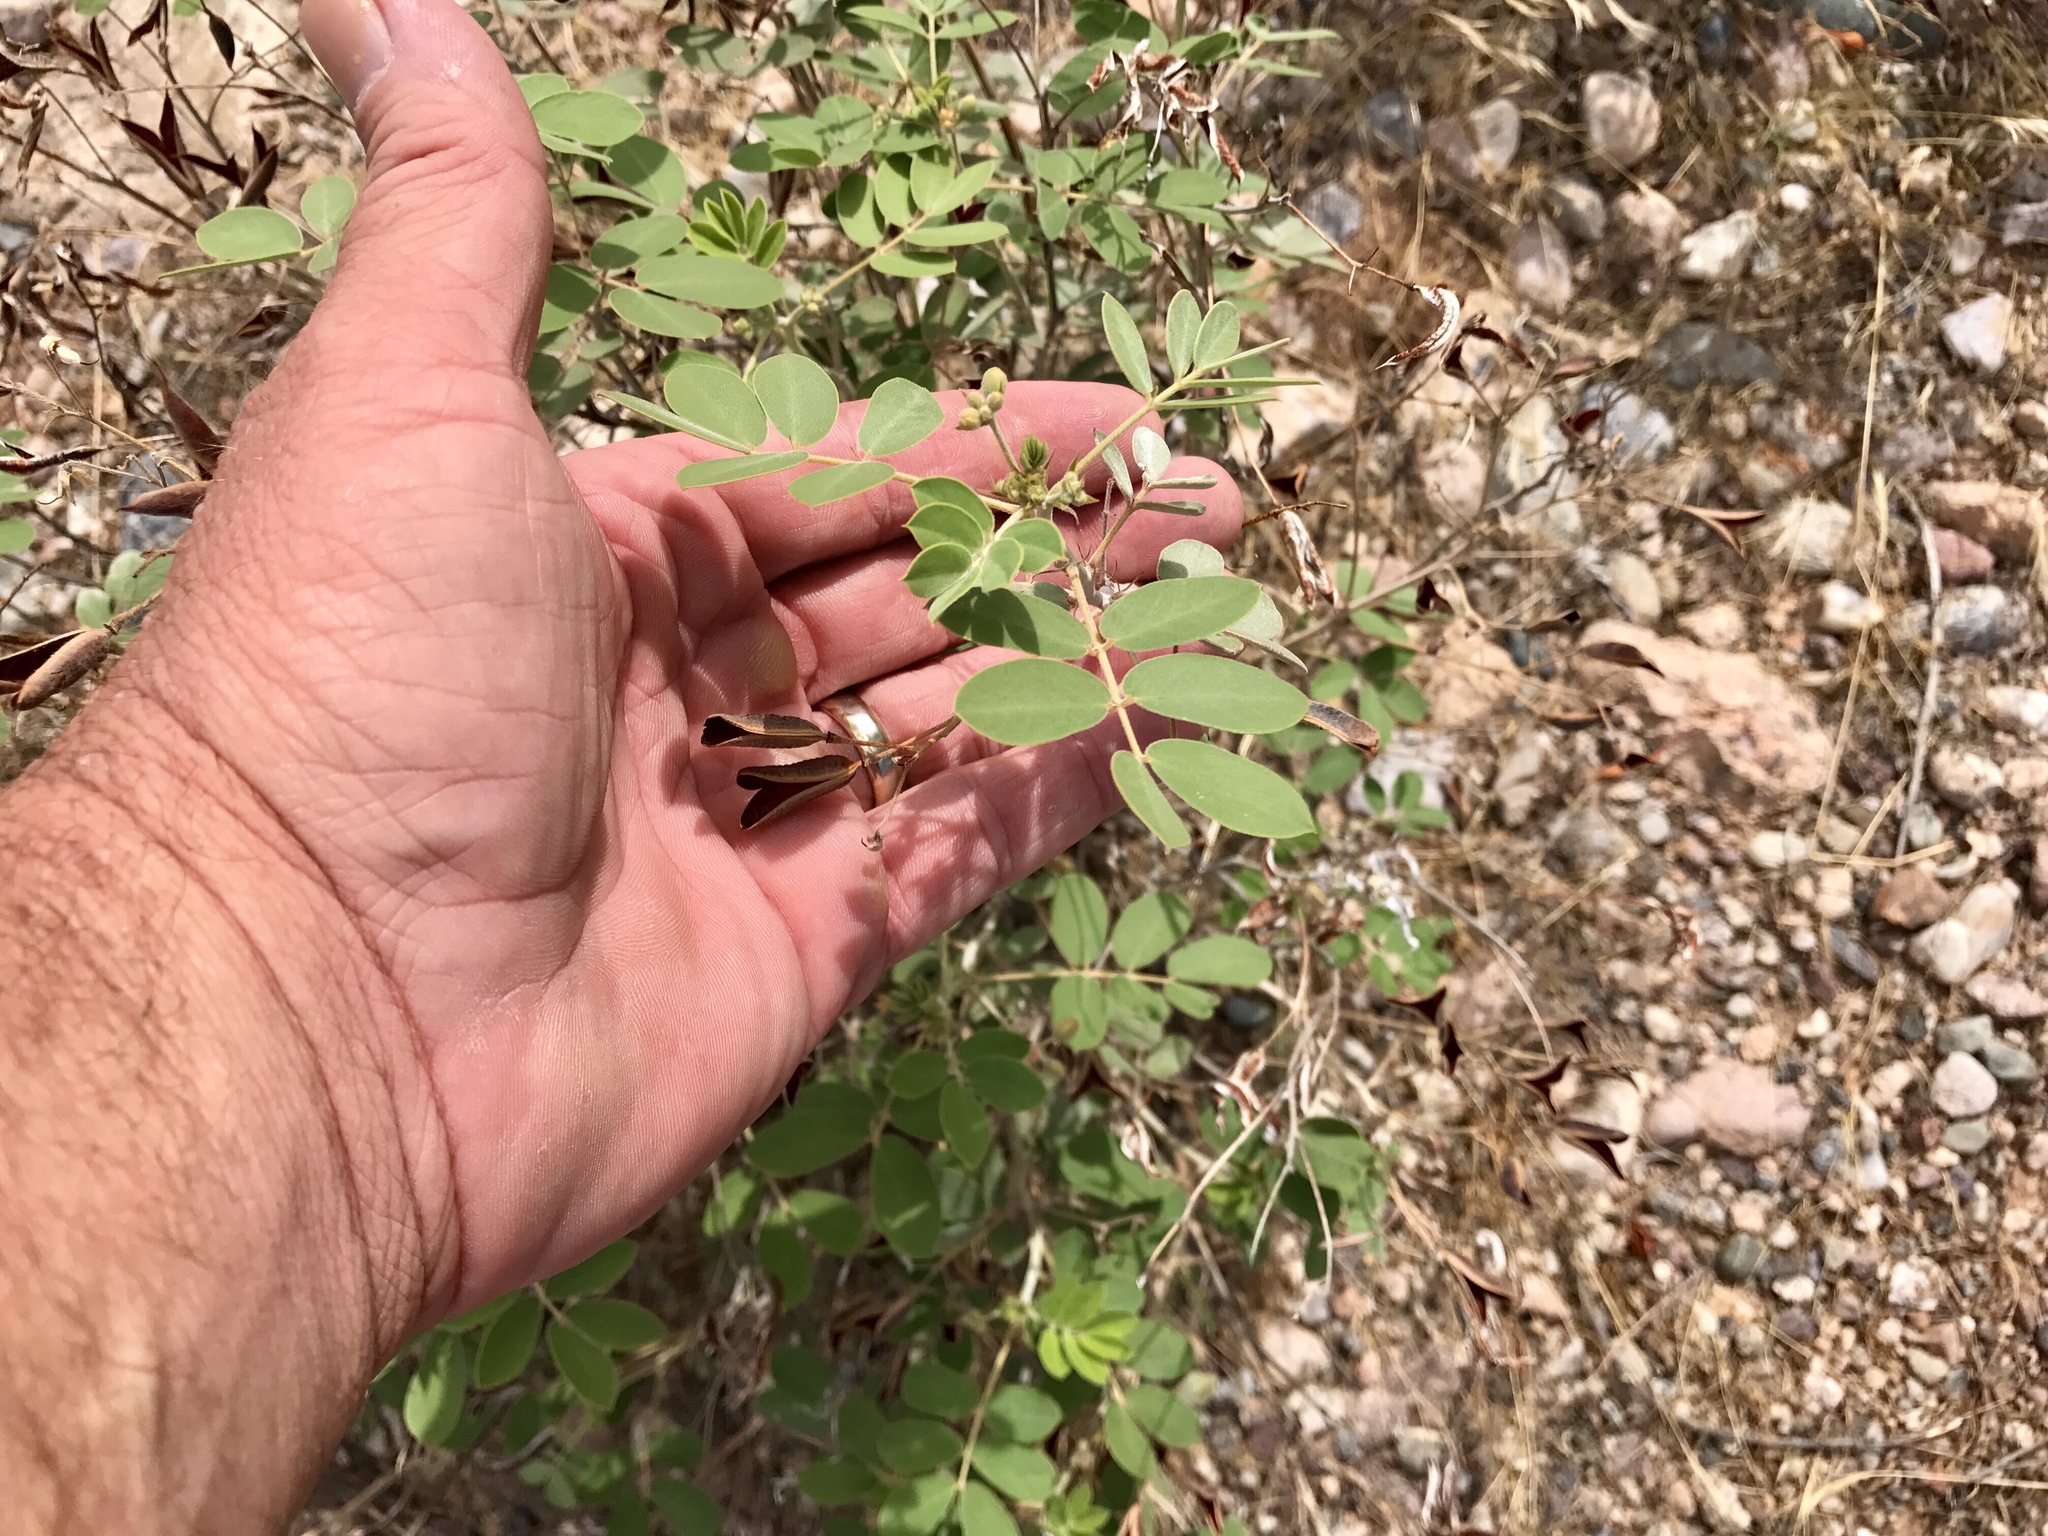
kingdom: Plantae
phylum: Tracheophyta
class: Magnoliopsida
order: Fabales
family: Fabaceae
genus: Senna
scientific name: Senna covesii
